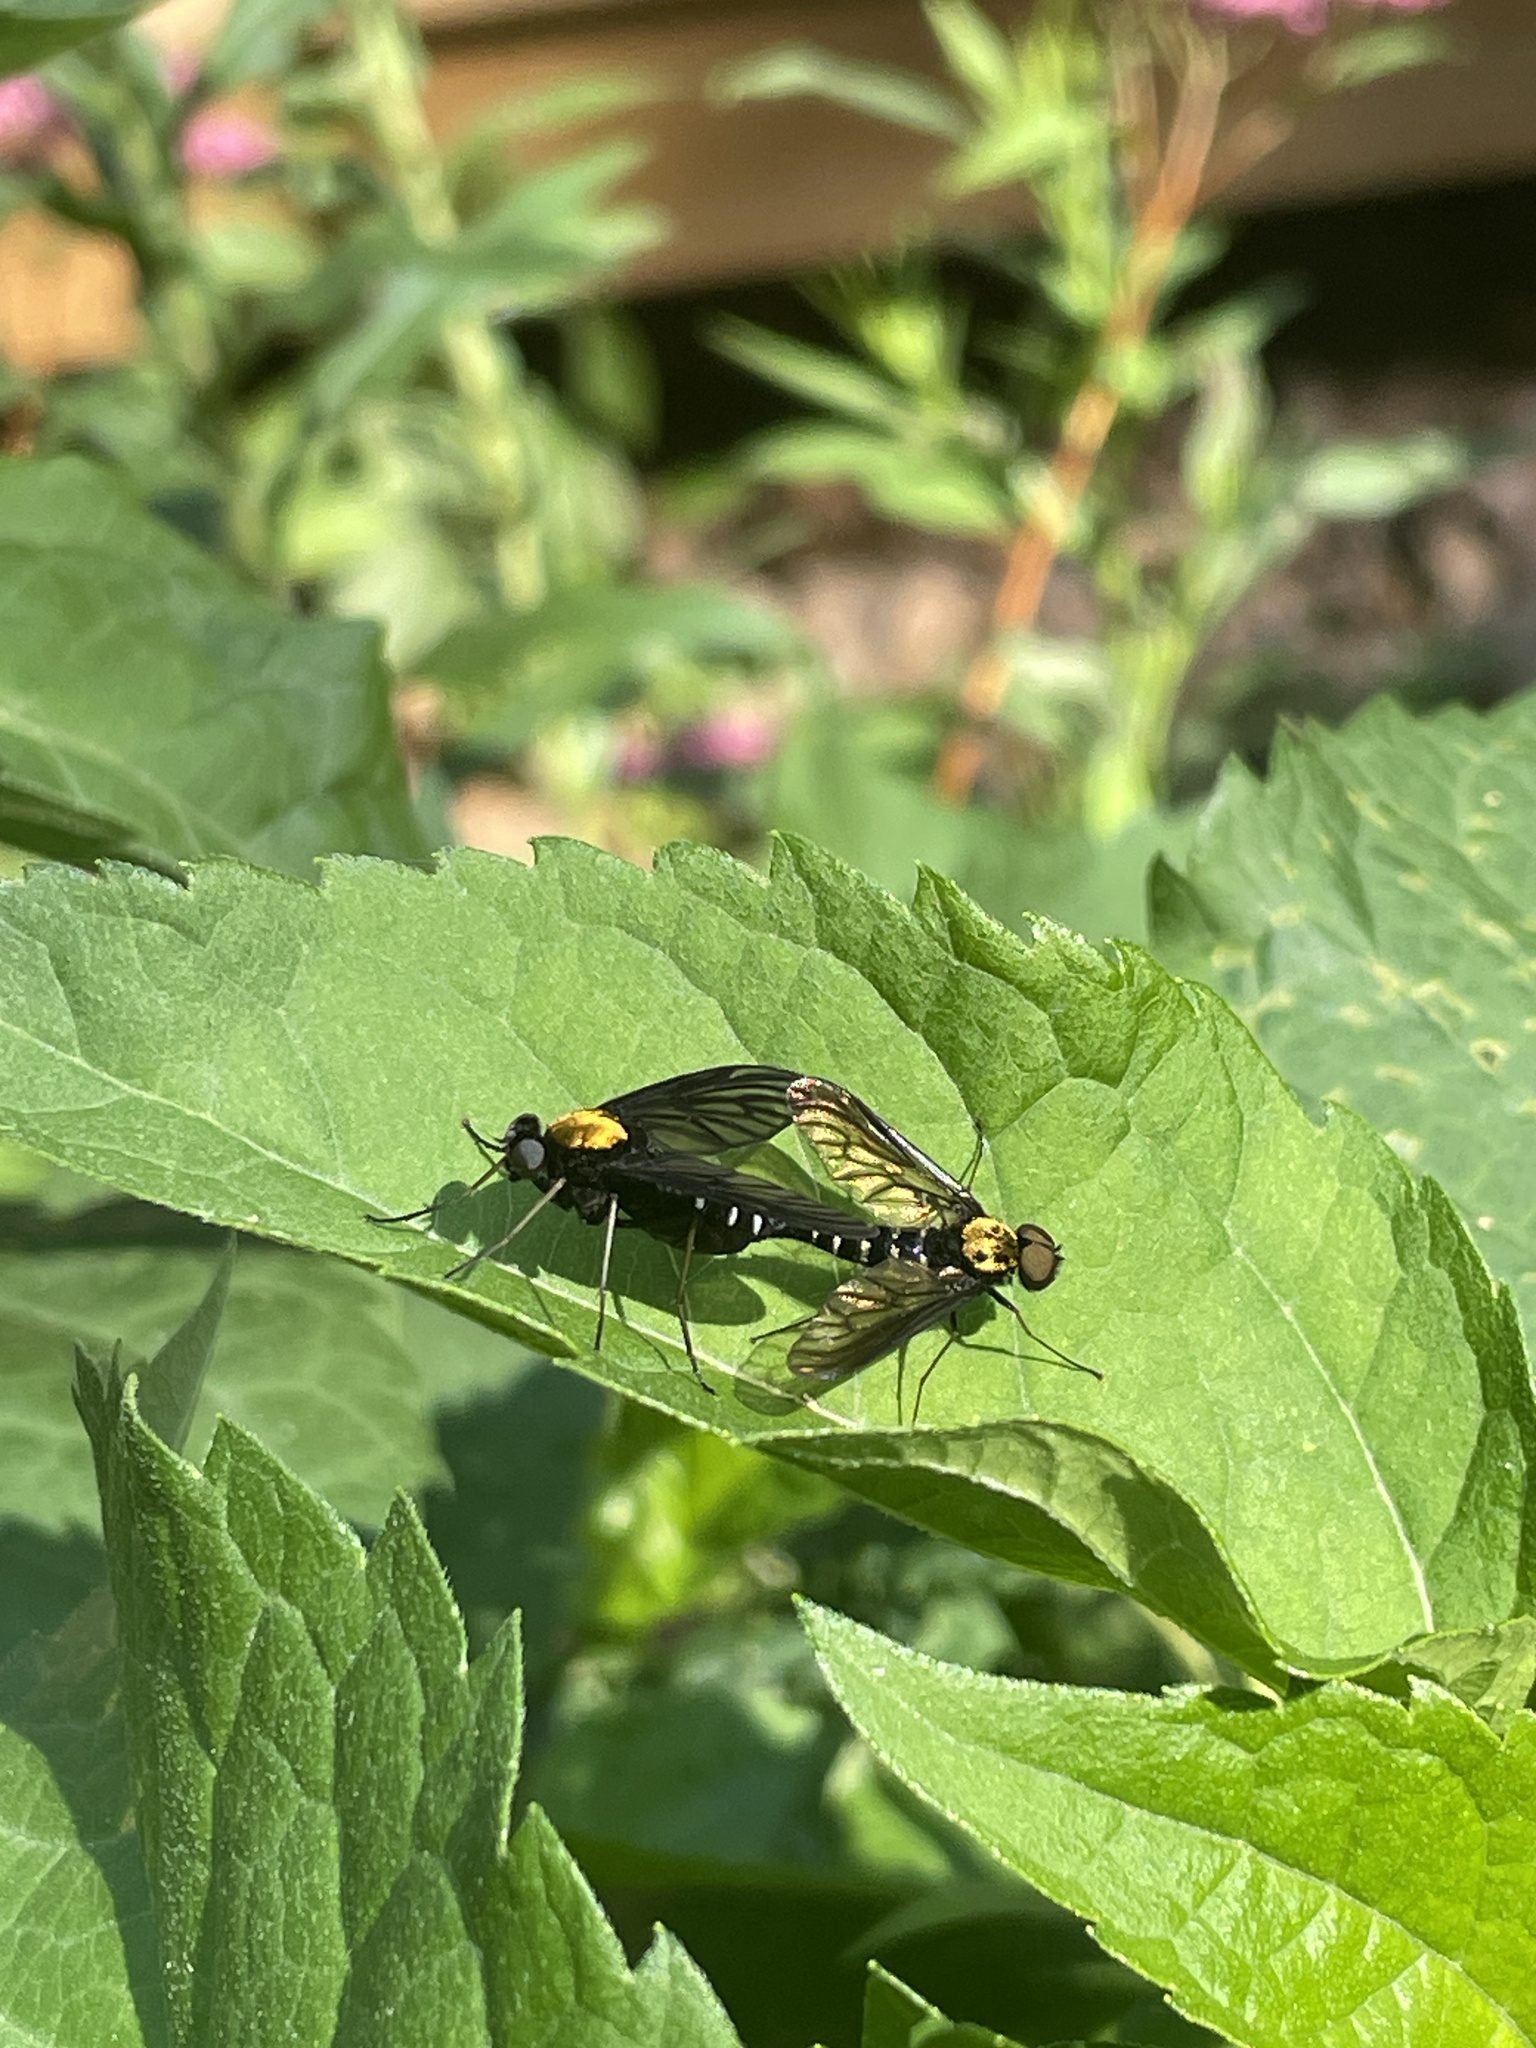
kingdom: Animalia
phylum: Arthropoda
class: Insecta
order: Diptera
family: Rhagionidae
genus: Chrysopilus
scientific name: Chrysopilus thoracicus
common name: Golden-backed snipe fly
